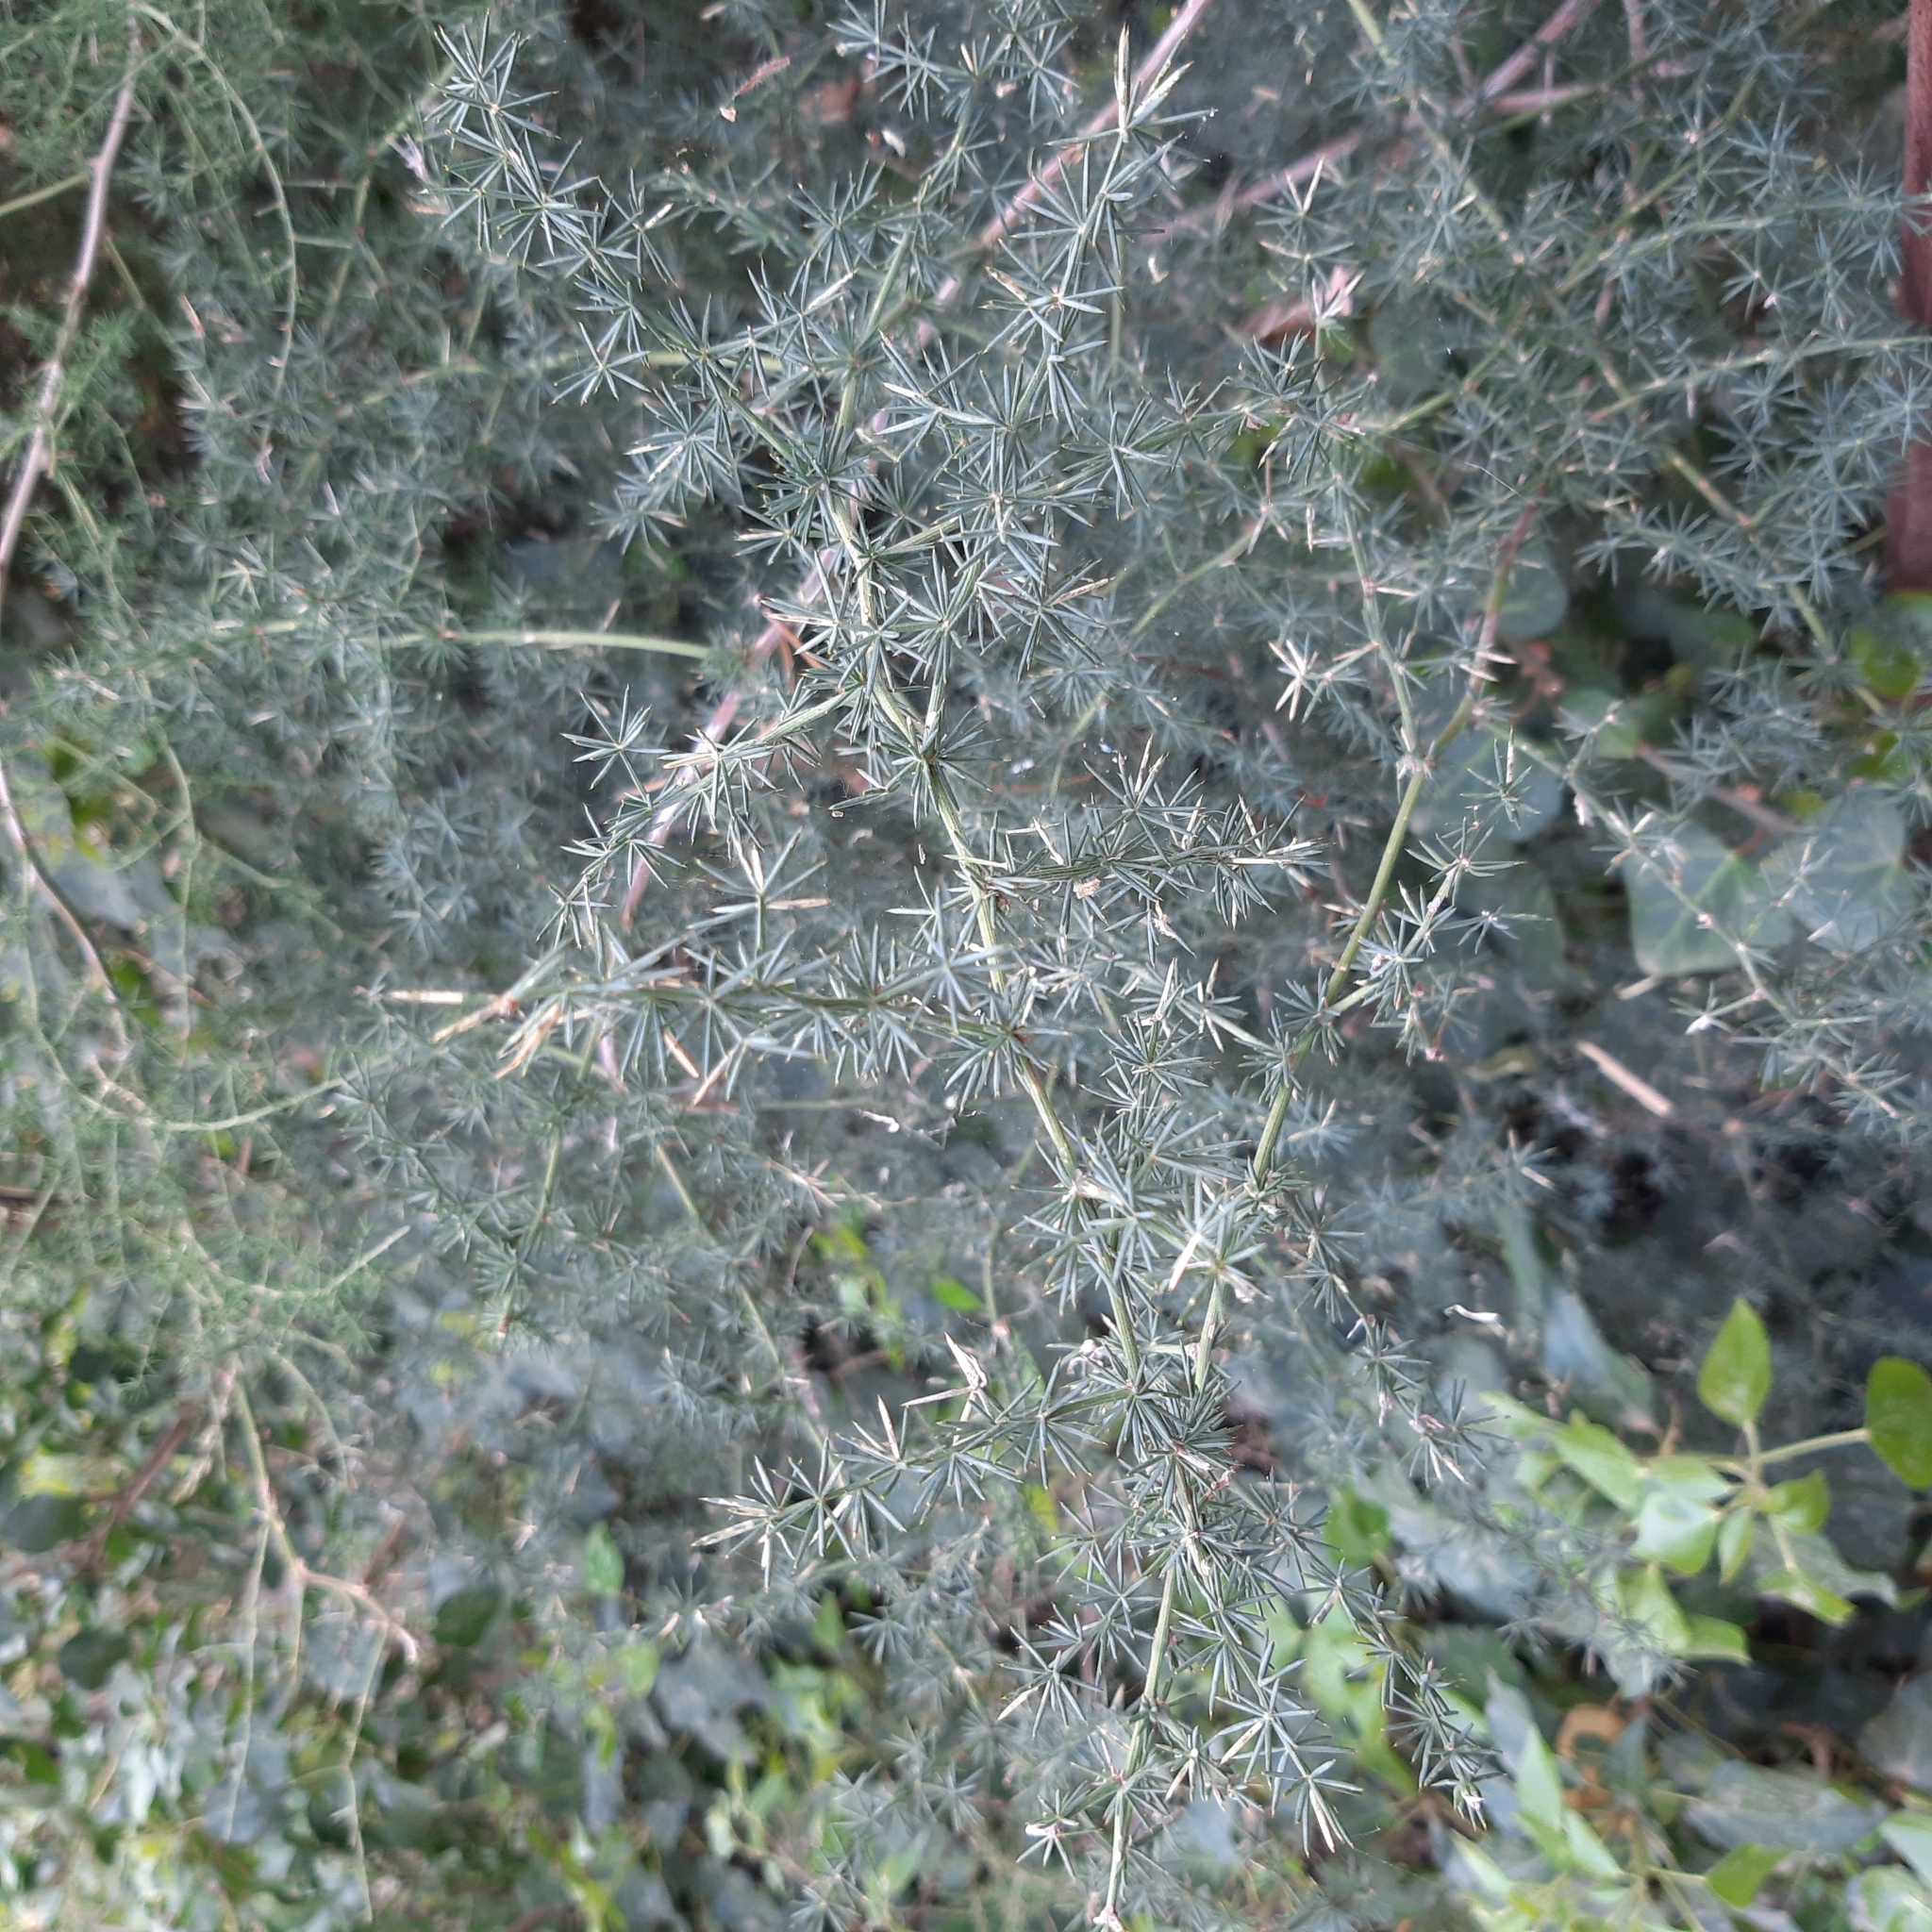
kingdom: Plantae
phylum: Tracheophyta
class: Liliopsida
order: Asparagales
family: Asparagaceae
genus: Asparagus
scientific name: Asparagus acutifolius
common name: Wild asparagus
